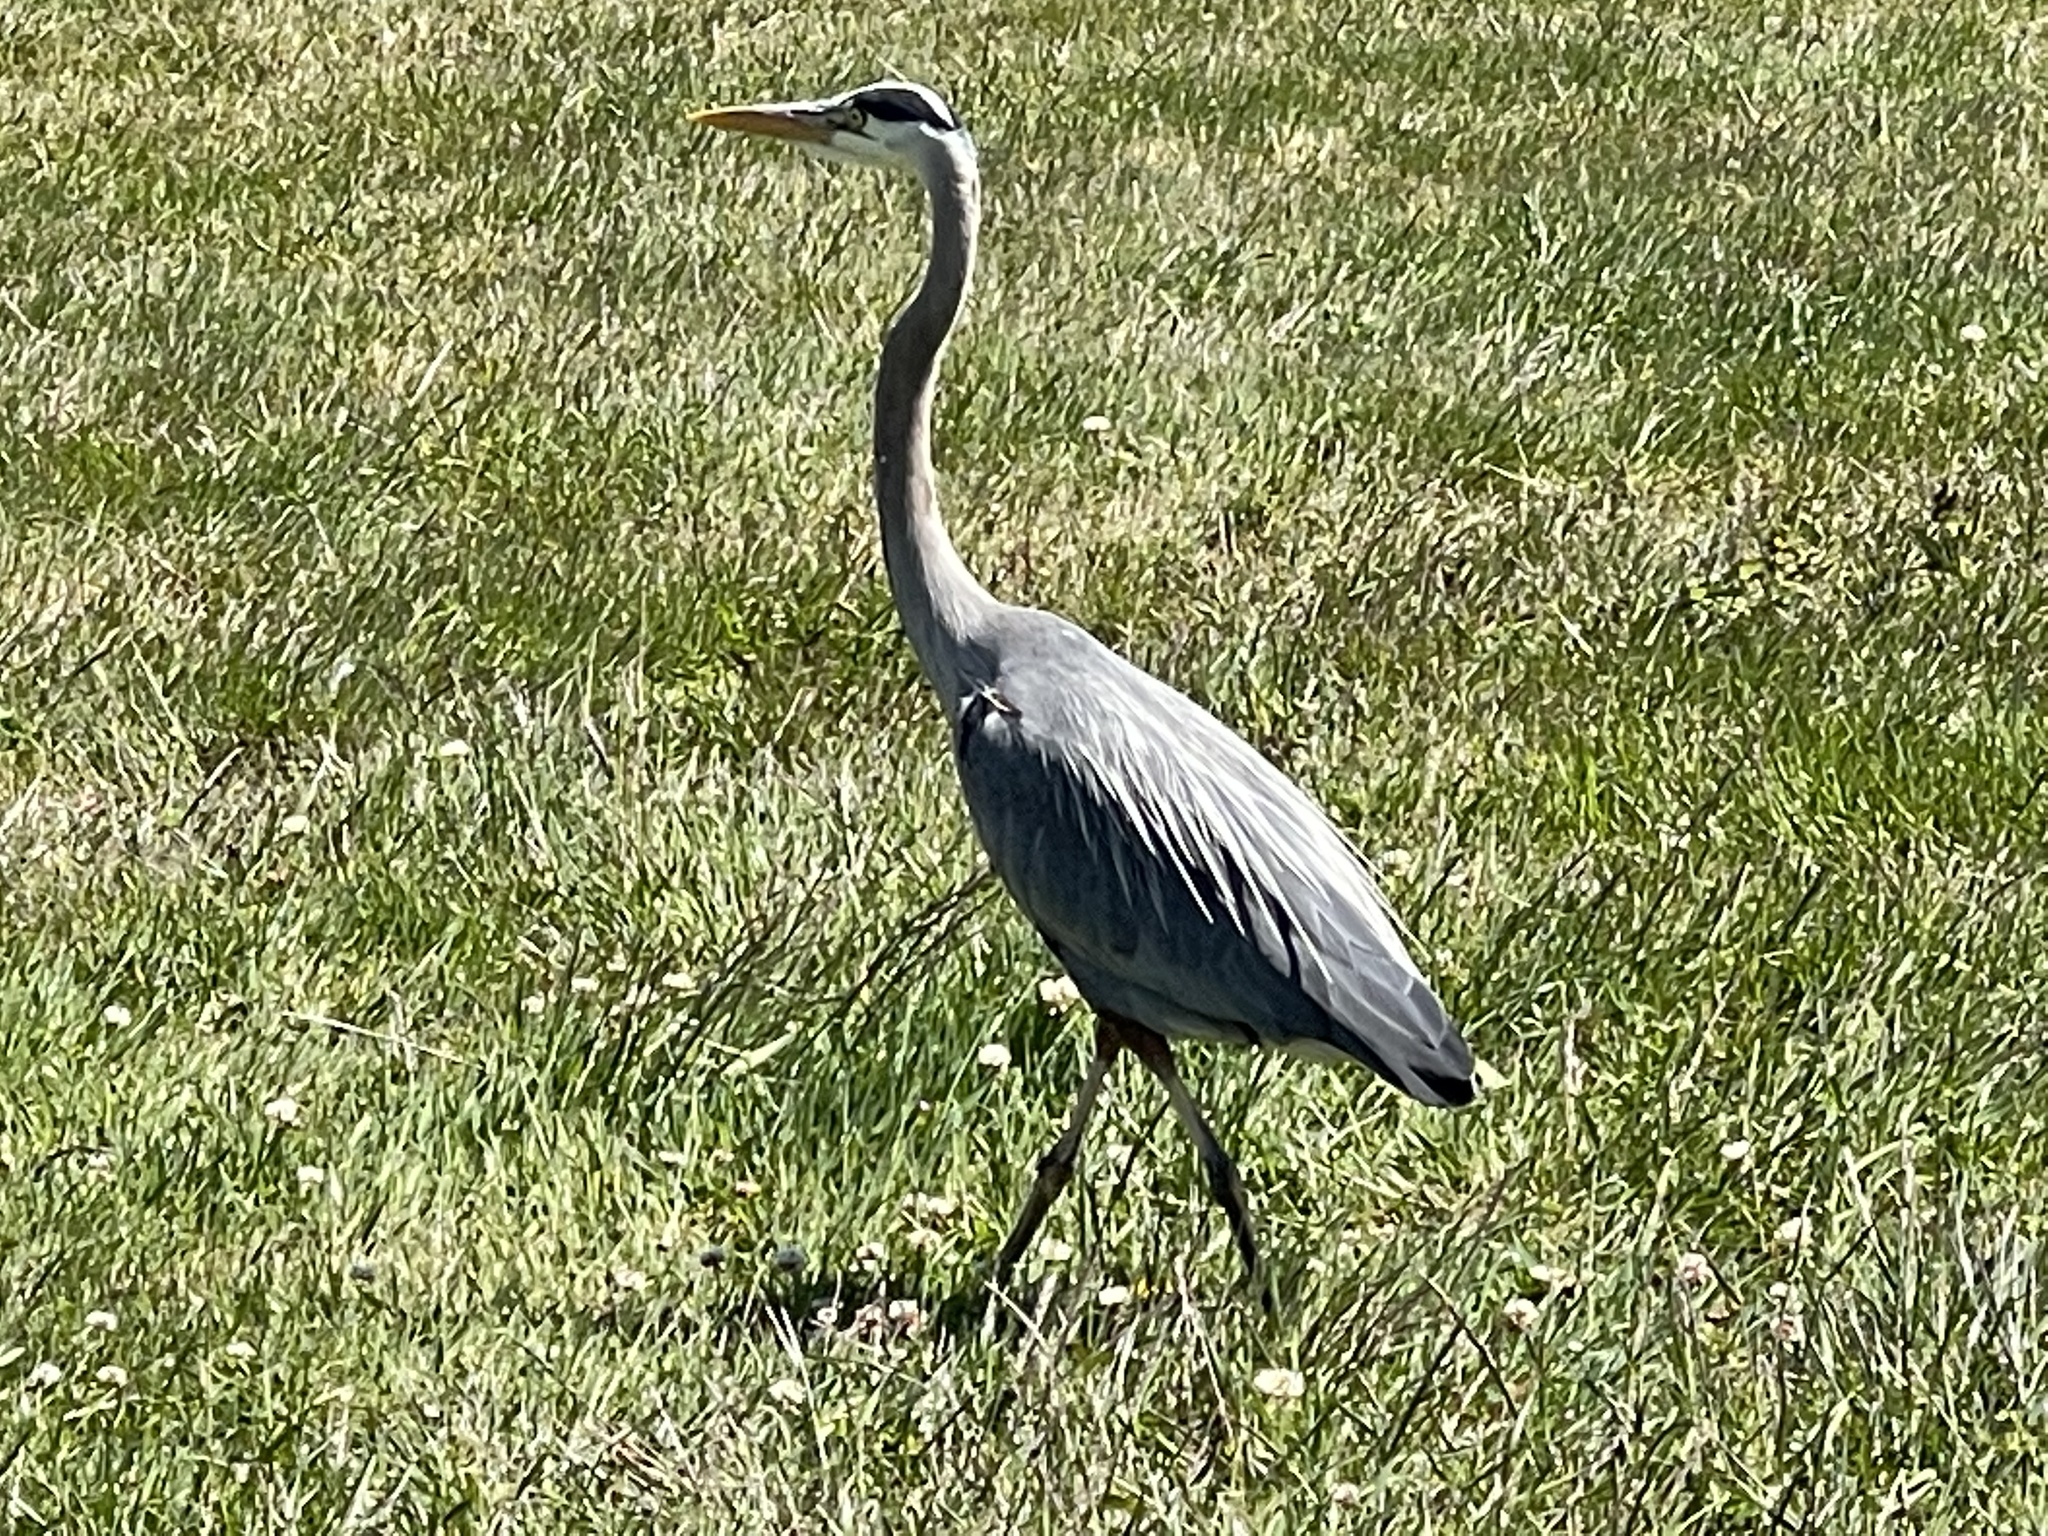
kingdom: Animalia
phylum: Chordata
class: Aves
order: Pelecaniformes
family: Ardeidae
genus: Ardea
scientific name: Ardea herodias
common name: Great blue heron
